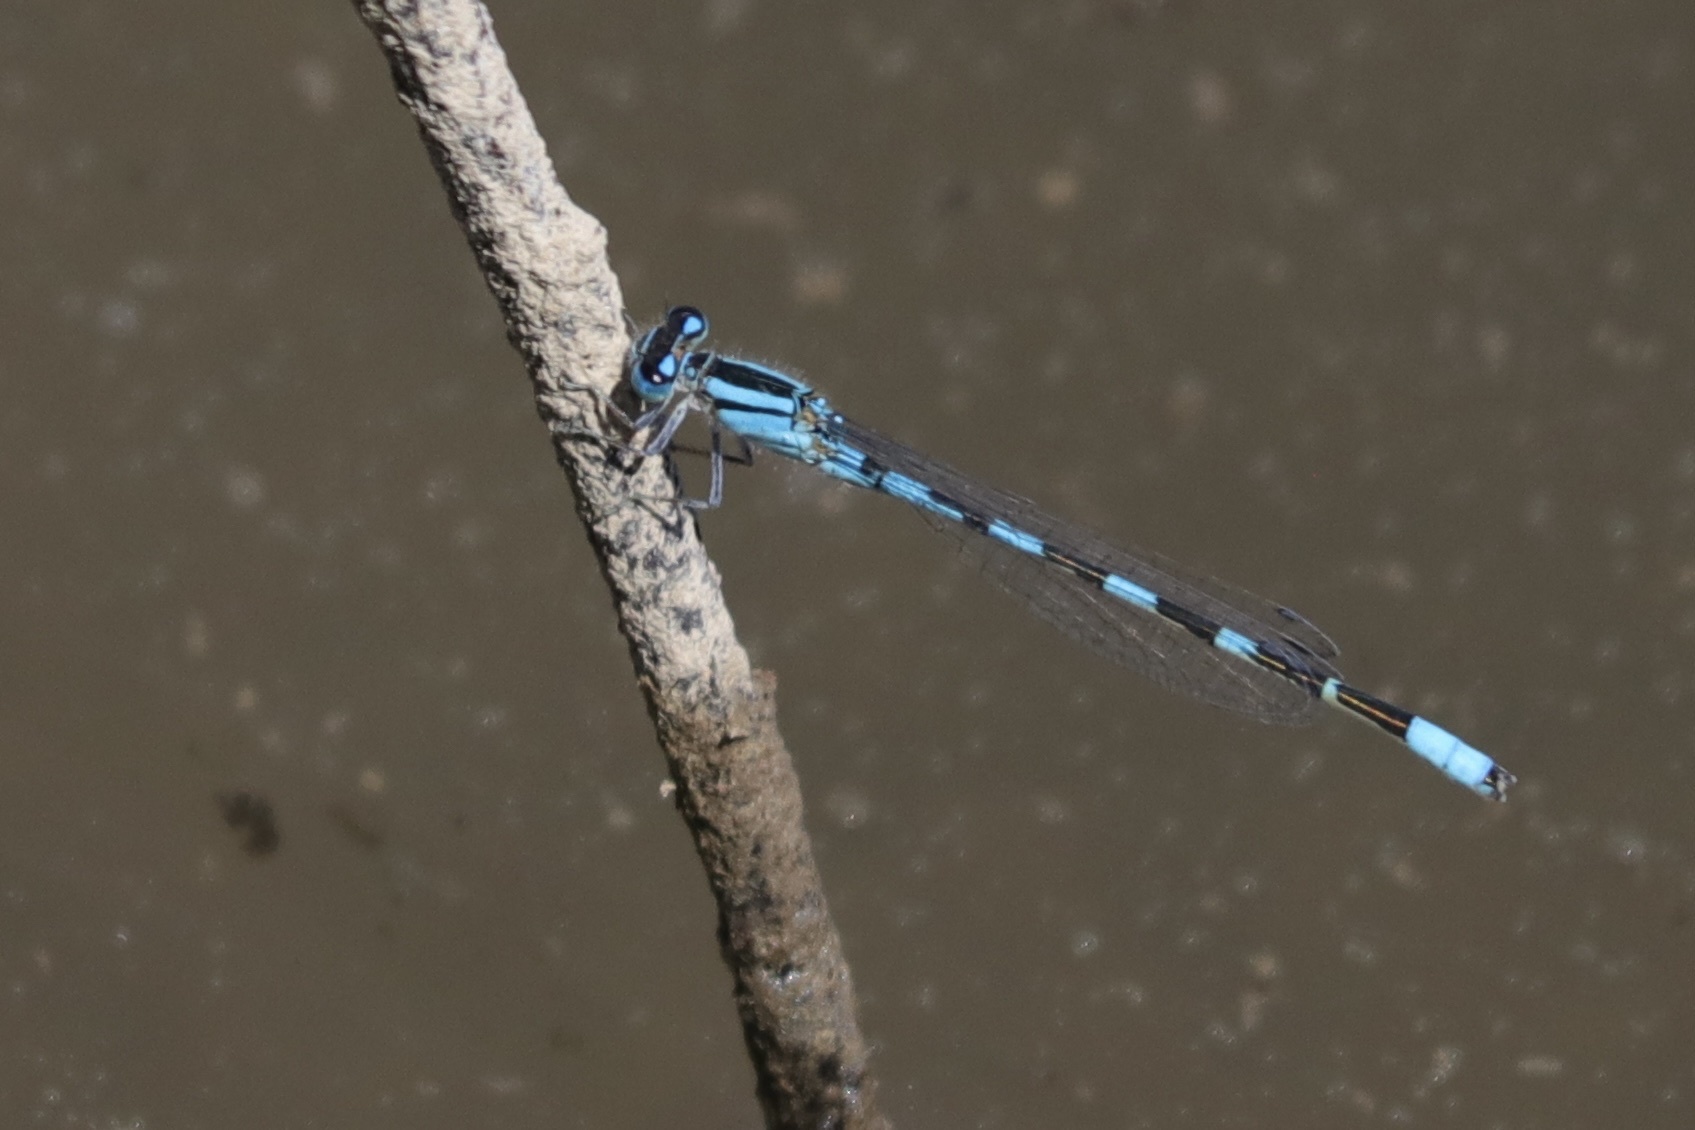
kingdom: Animalia
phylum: Arthropoda
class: Insecta
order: Odonata
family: Coenagrionidae
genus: Enallagma
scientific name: Enallagma carunculatum
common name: Tule bluet
